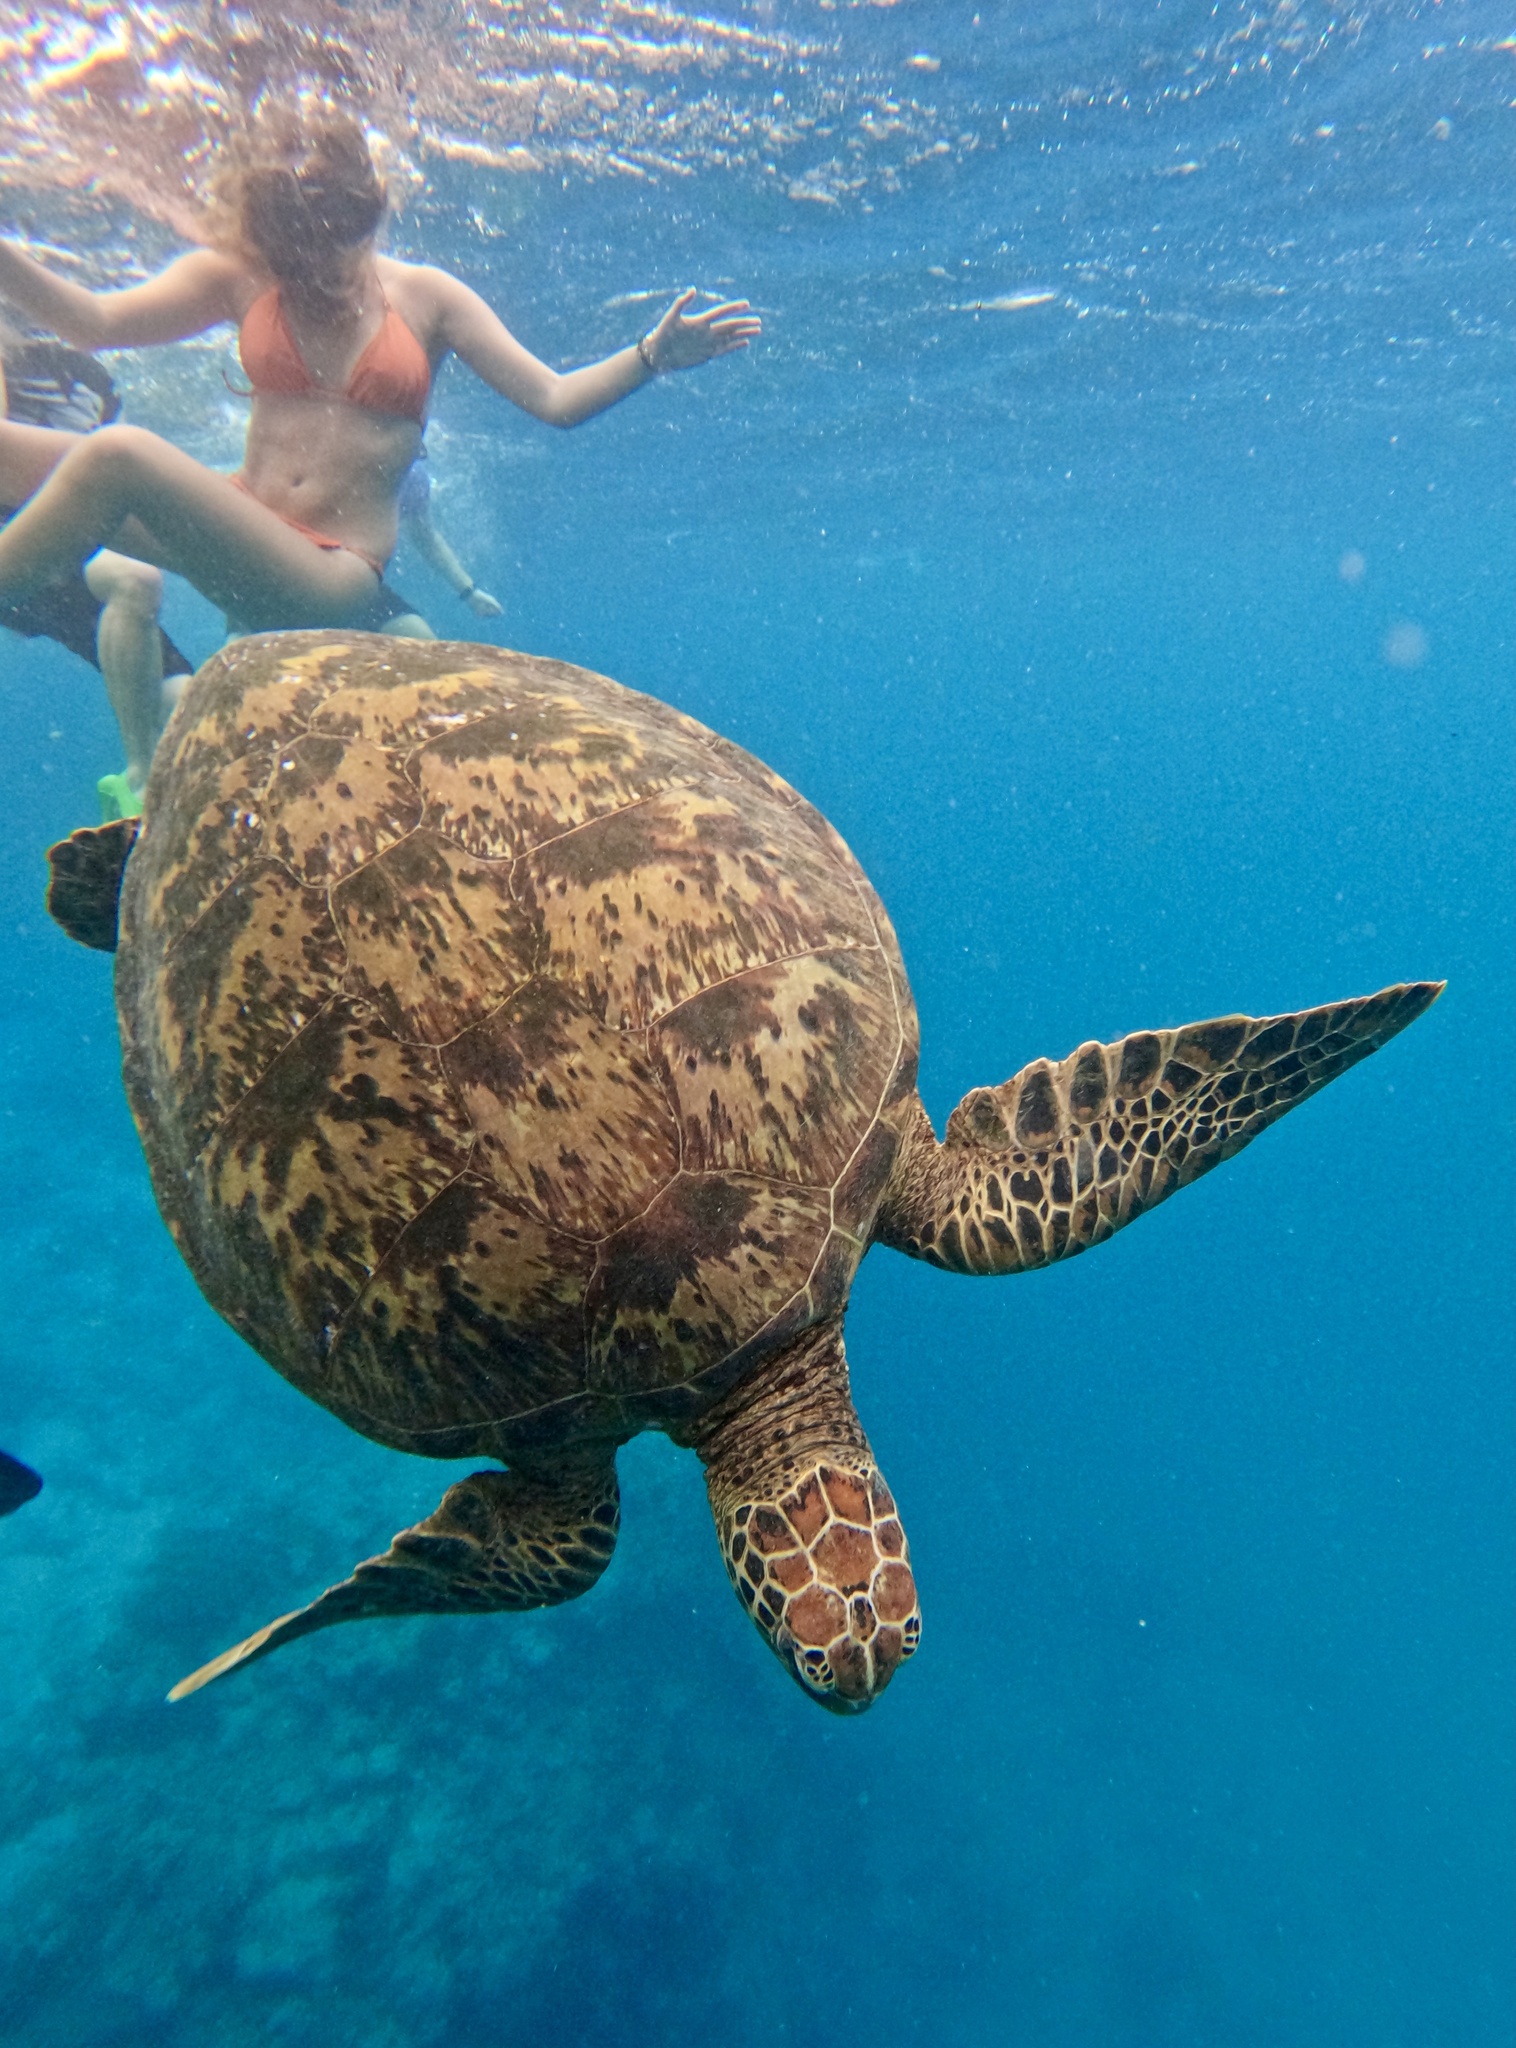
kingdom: Animalia
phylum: Chordata
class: Testudines
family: Cheloniidae
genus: Chelonia
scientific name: Chelonia mydas
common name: Green turtle
